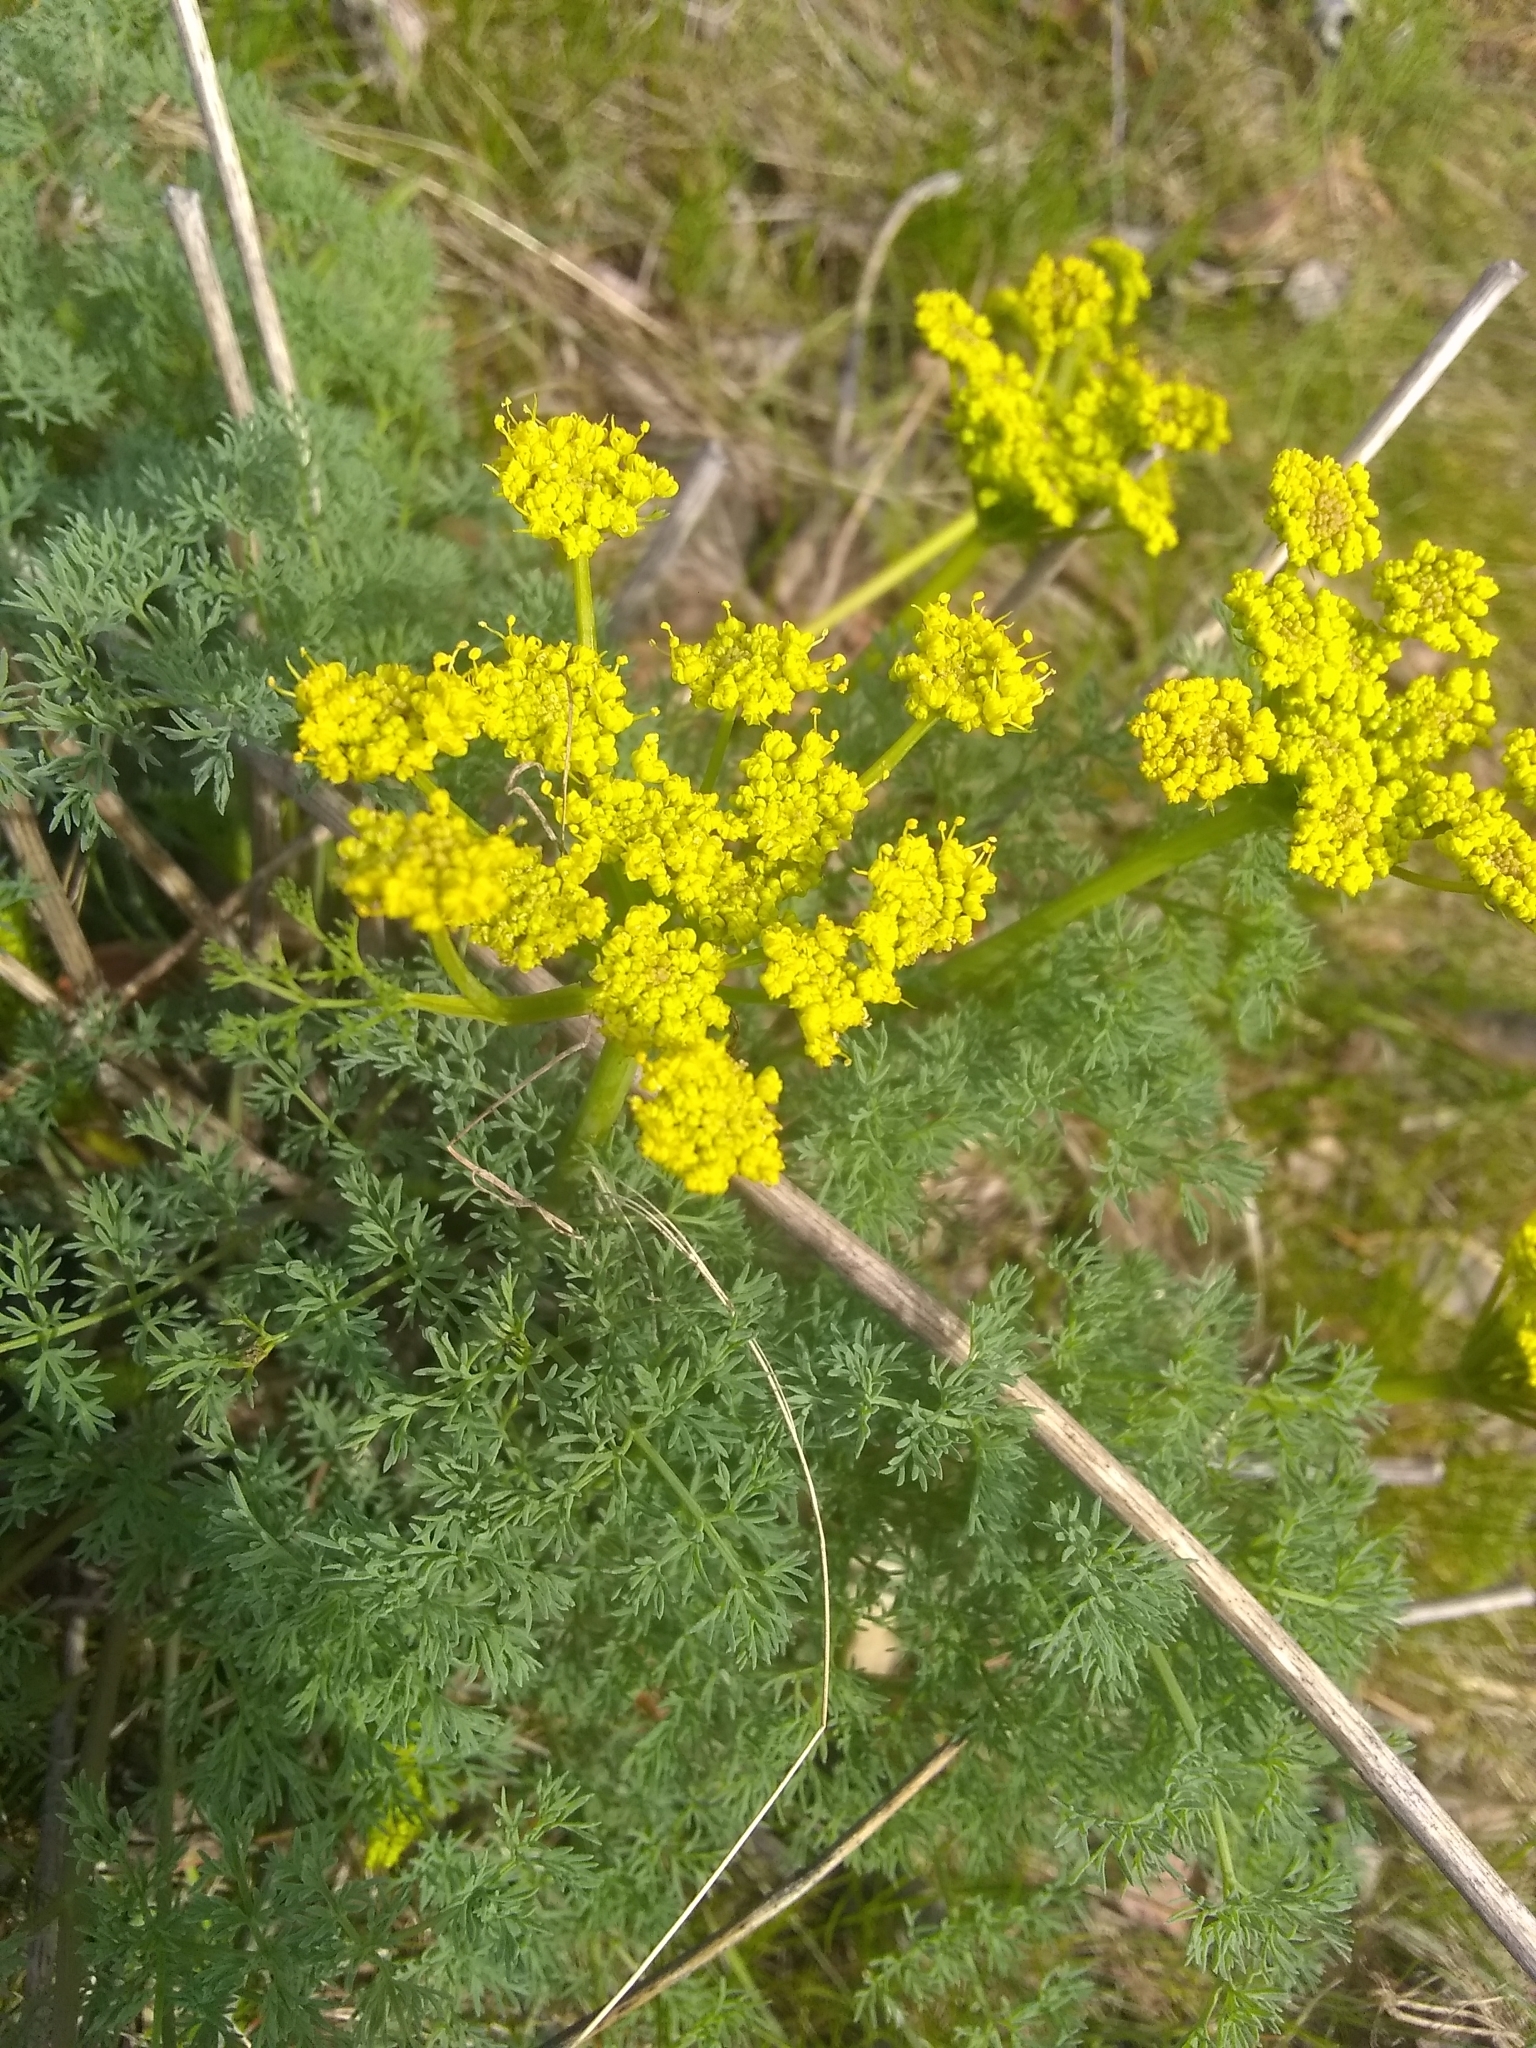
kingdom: Plantae
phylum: Tracheophyta
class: Magnoliopsida
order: Apiales
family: Apiaceae
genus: Lomatium
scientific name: Lomatium papilioniferum
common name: Butterfly lomatium
